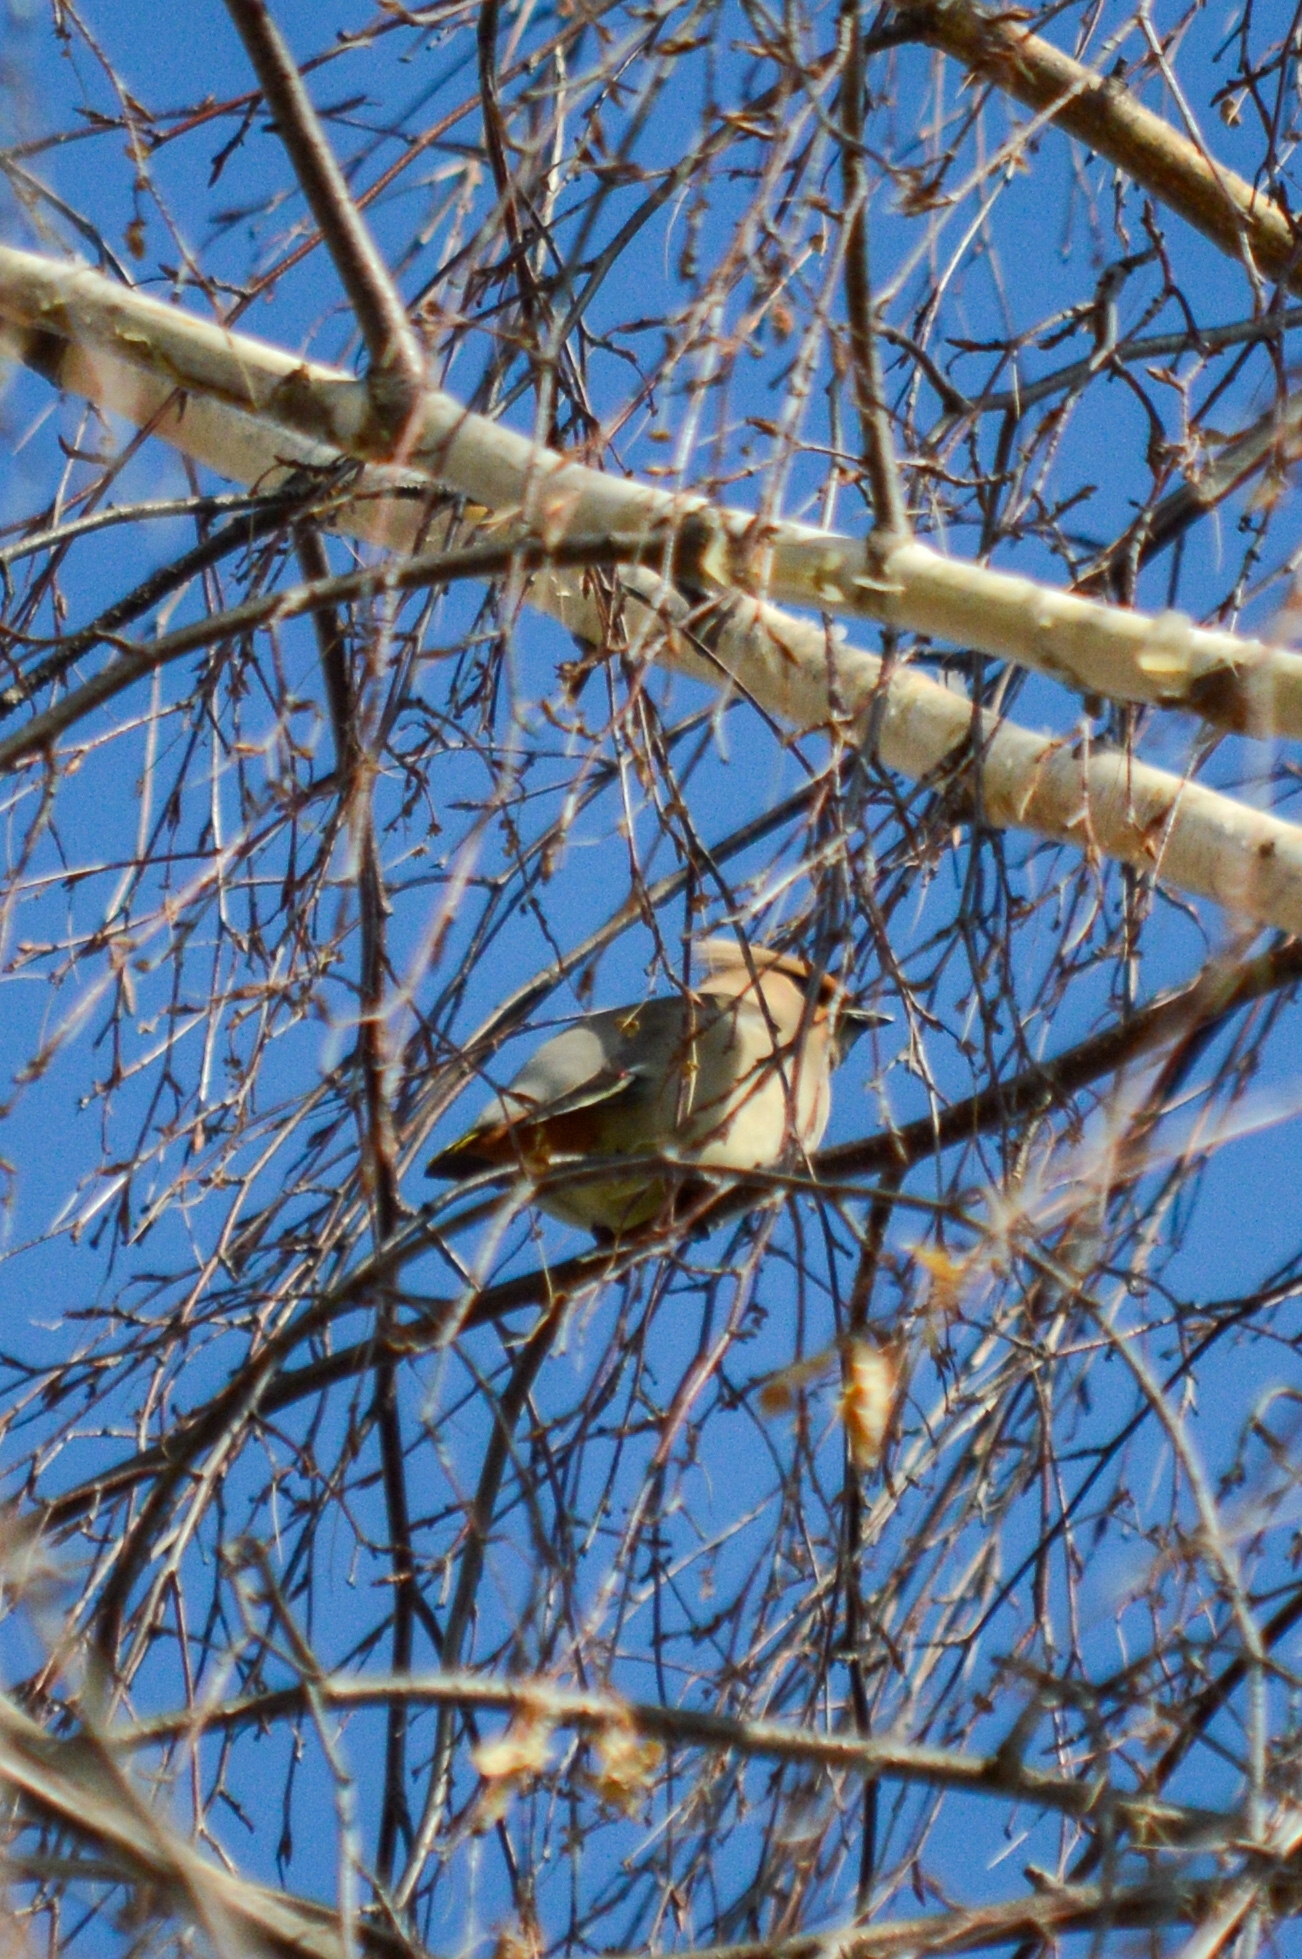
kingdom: Animalia
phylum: Chordata
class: Aves
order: Passeriformes
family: Bombycillidae
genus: Bombycilla
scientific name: Bombycilla garrulus
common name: Bohemian waxwing
